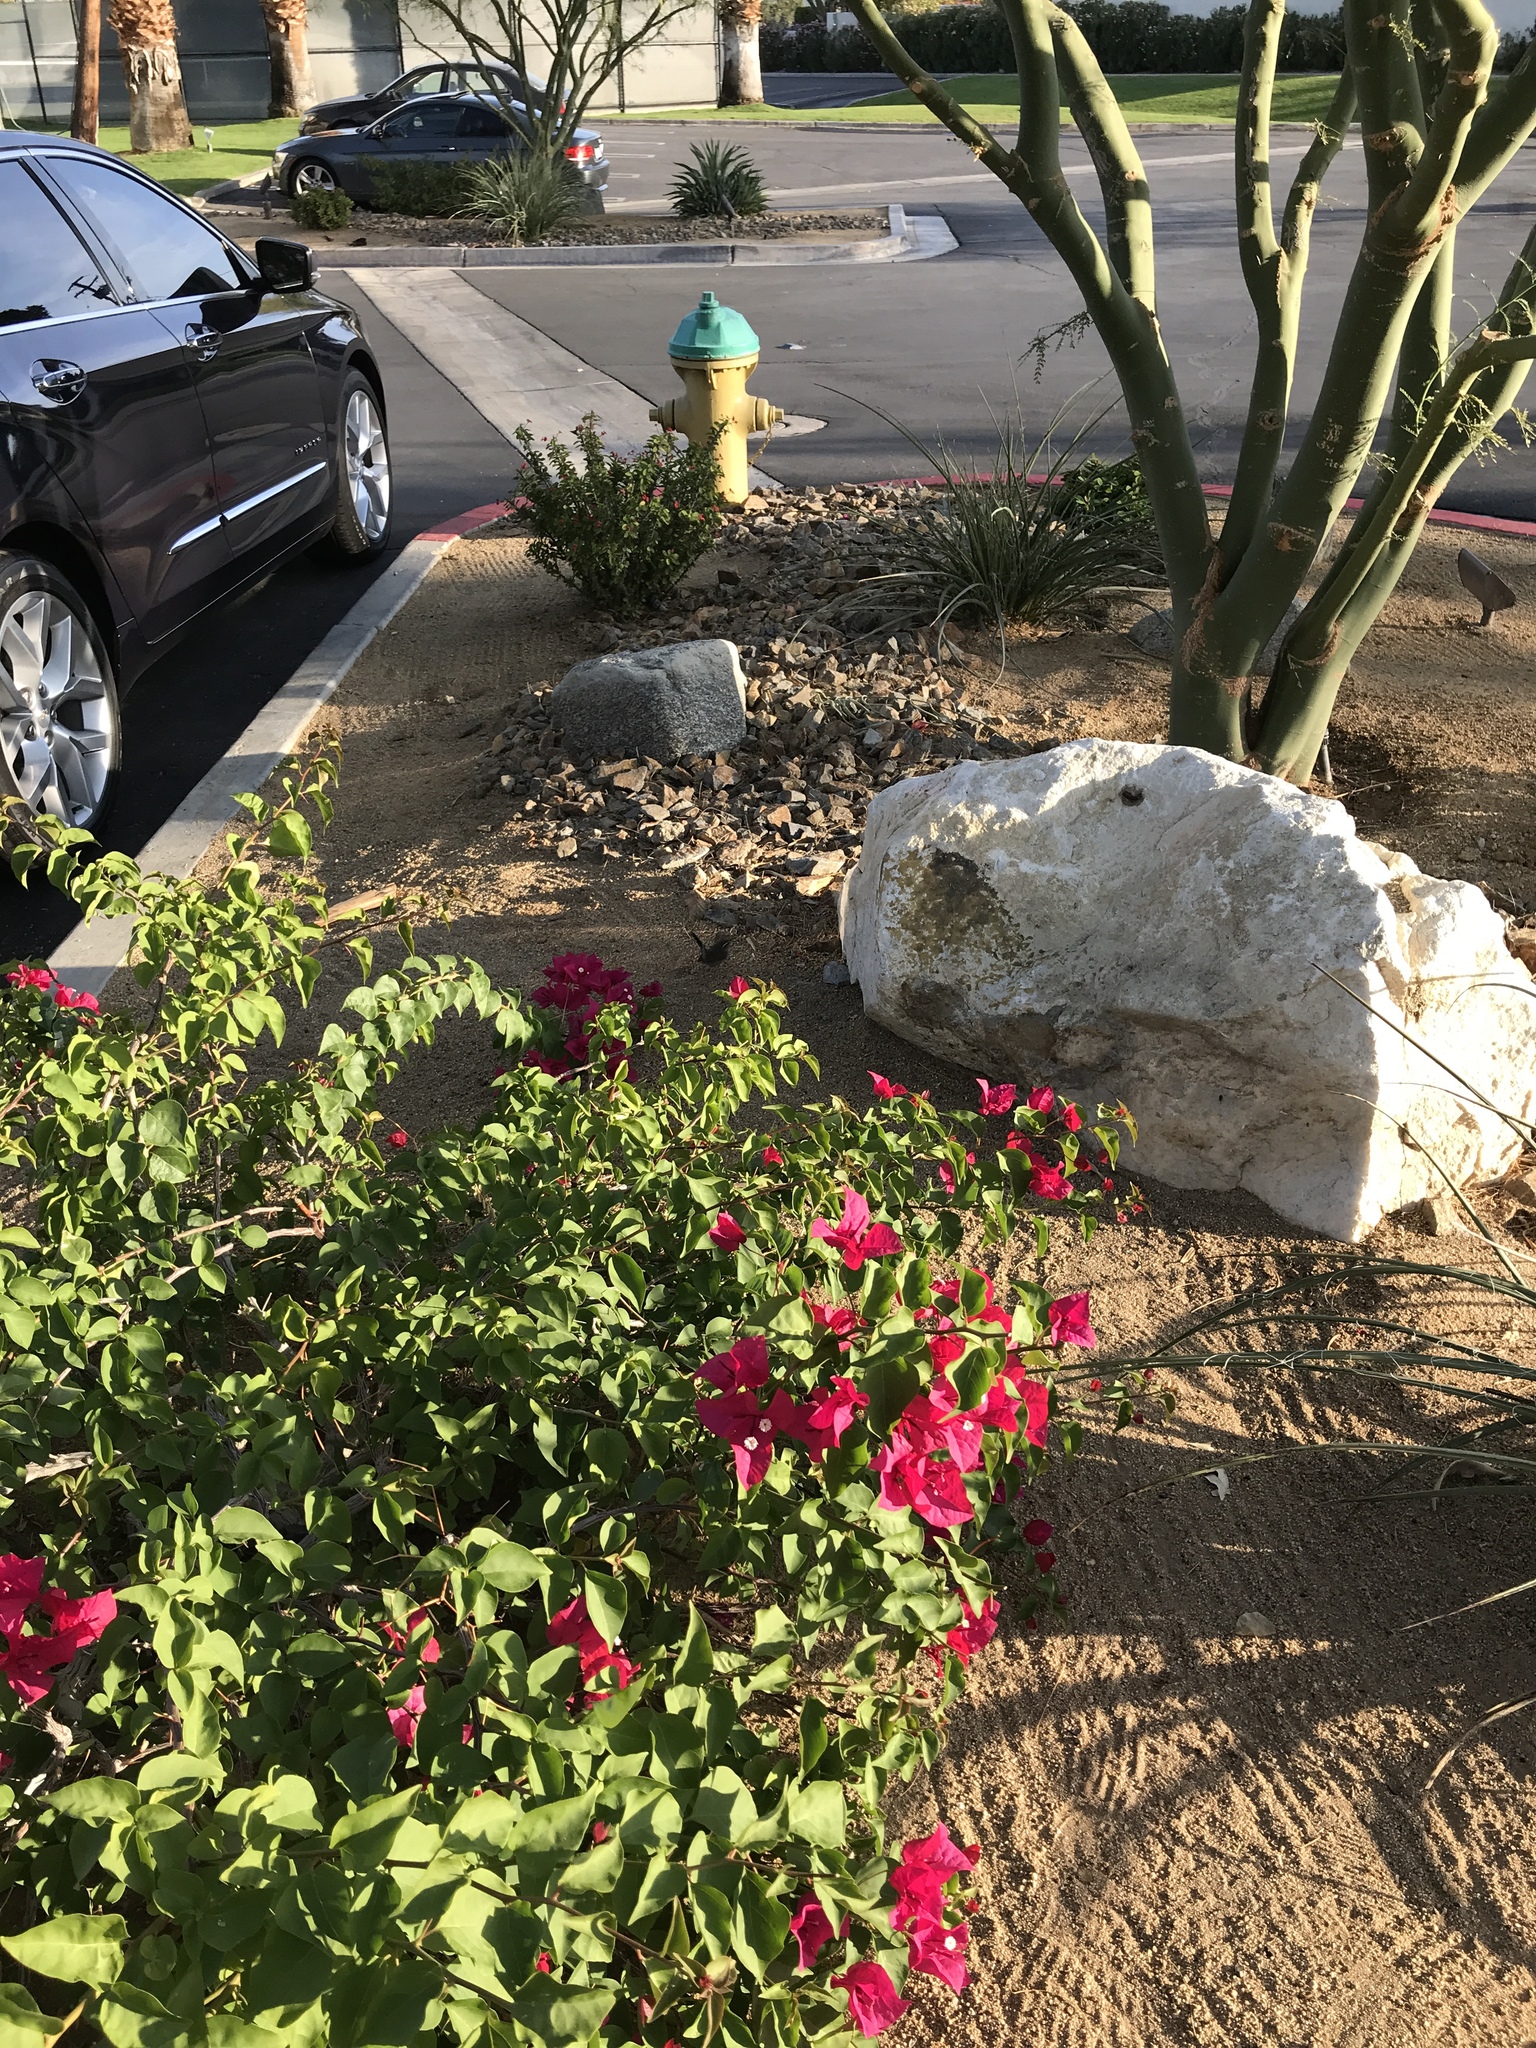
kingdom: Animalia
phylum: Chordata
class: Aves
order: Passeriformes
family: Troglodytidae
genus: Thryomanes
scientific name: Thryomanes bewickii
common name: Bewick's wren
